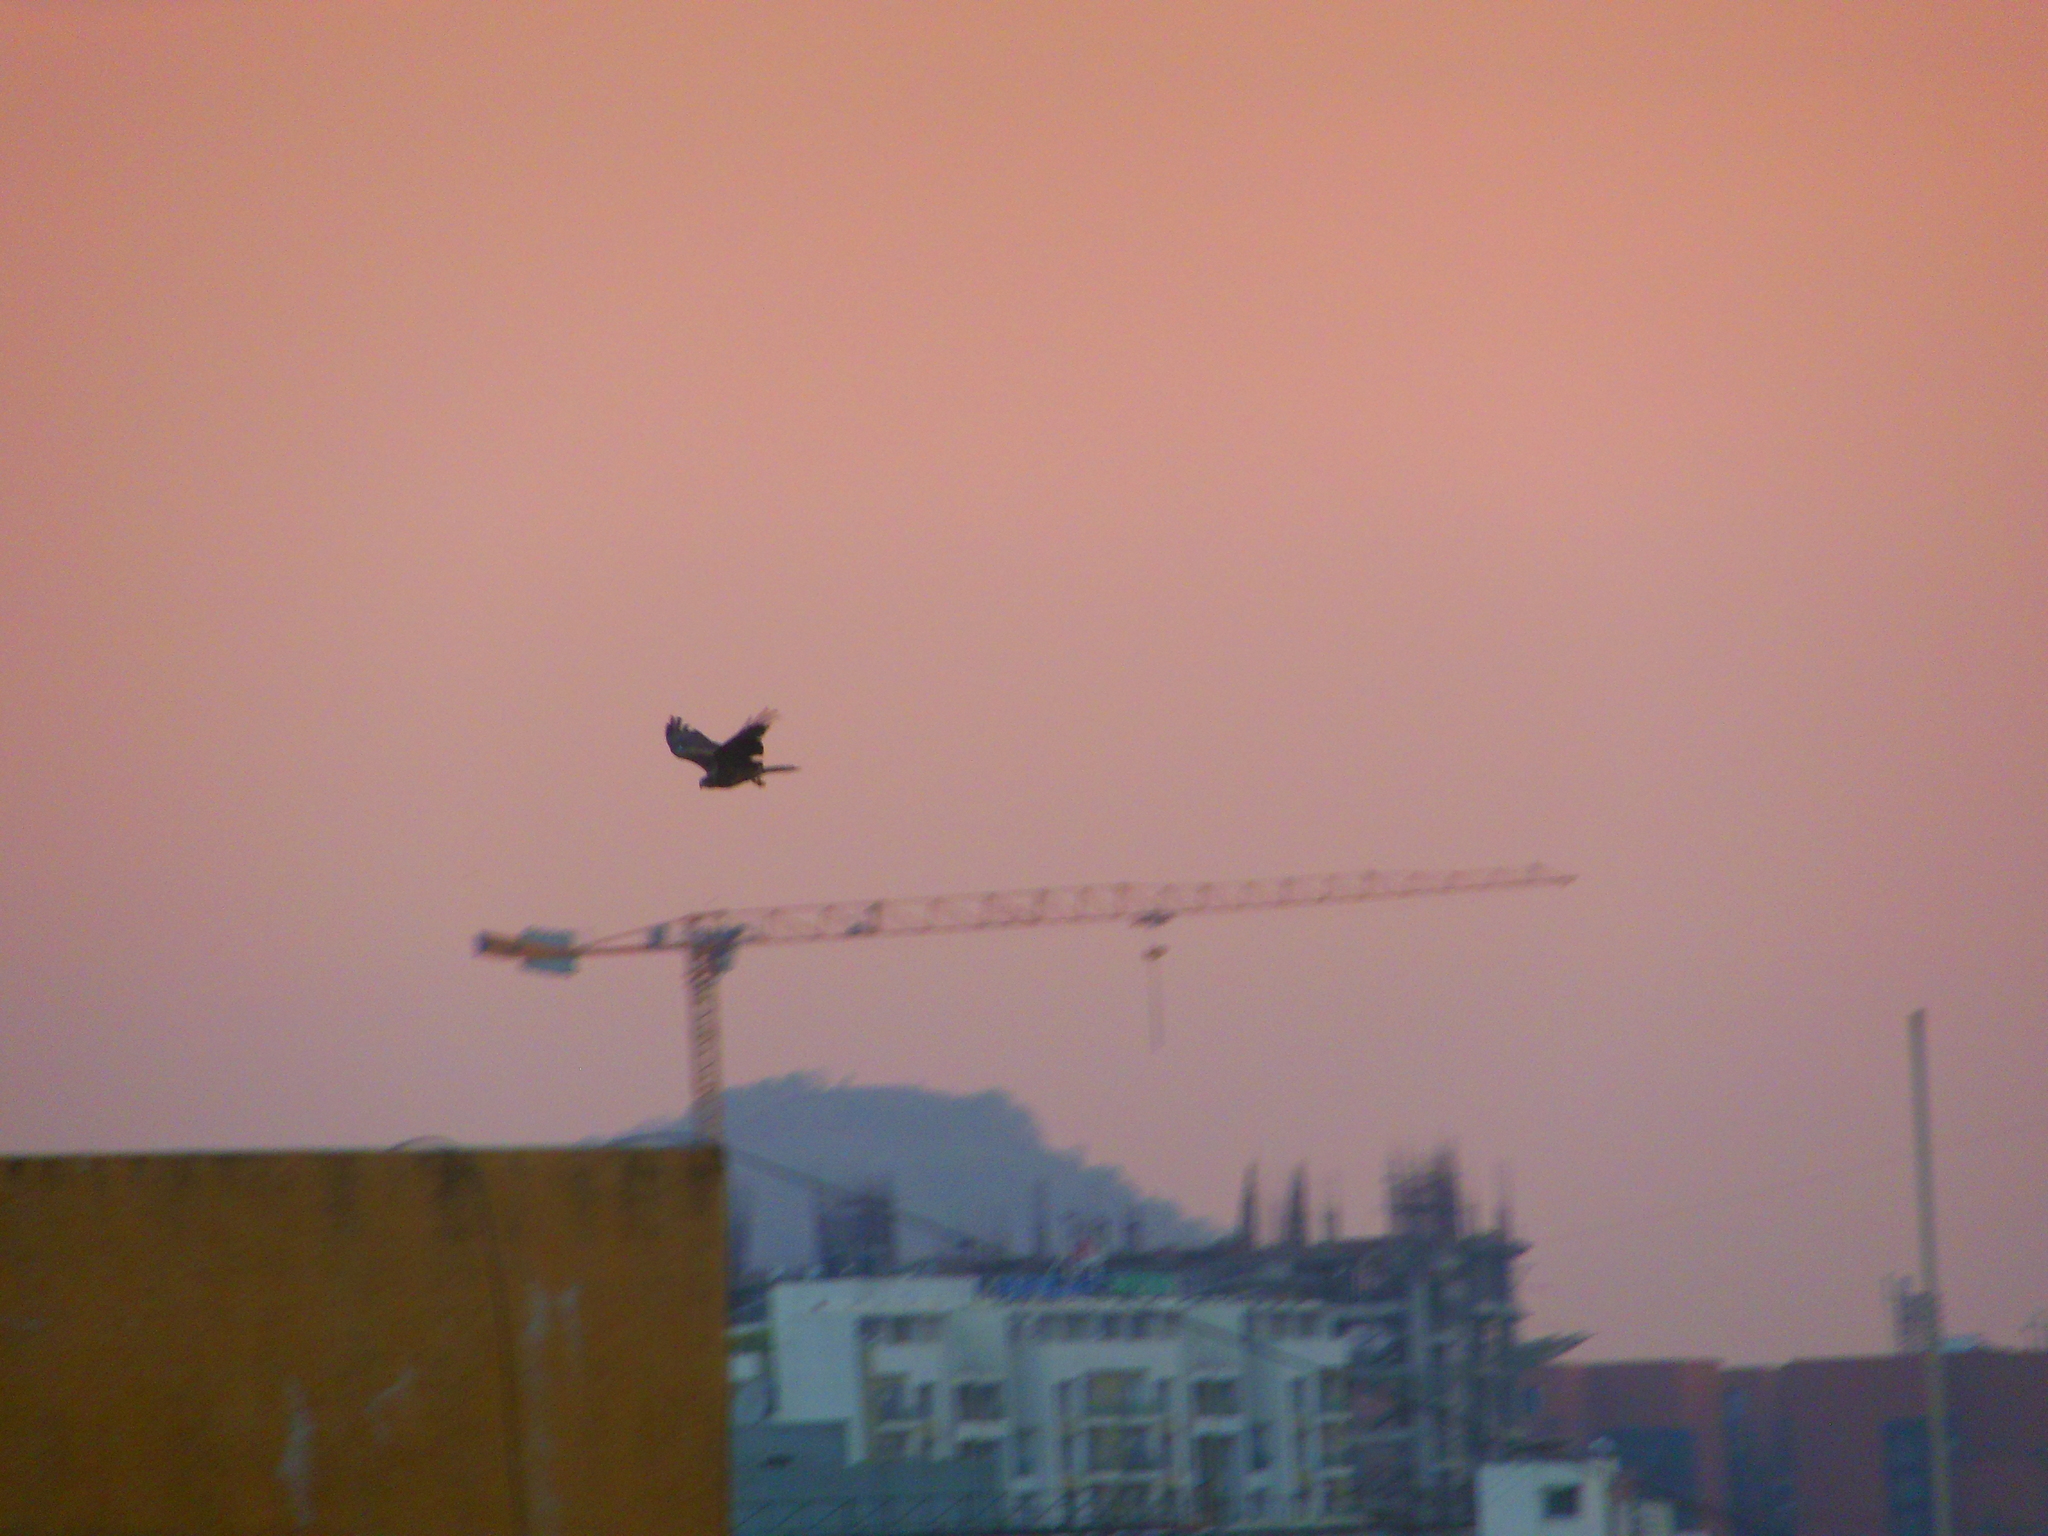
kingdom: Animalia
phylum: Chordata
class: Aves
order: Accipitriformes
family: Accipitridae
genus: Milvus
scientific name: Milvus migrans
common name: Black kite
